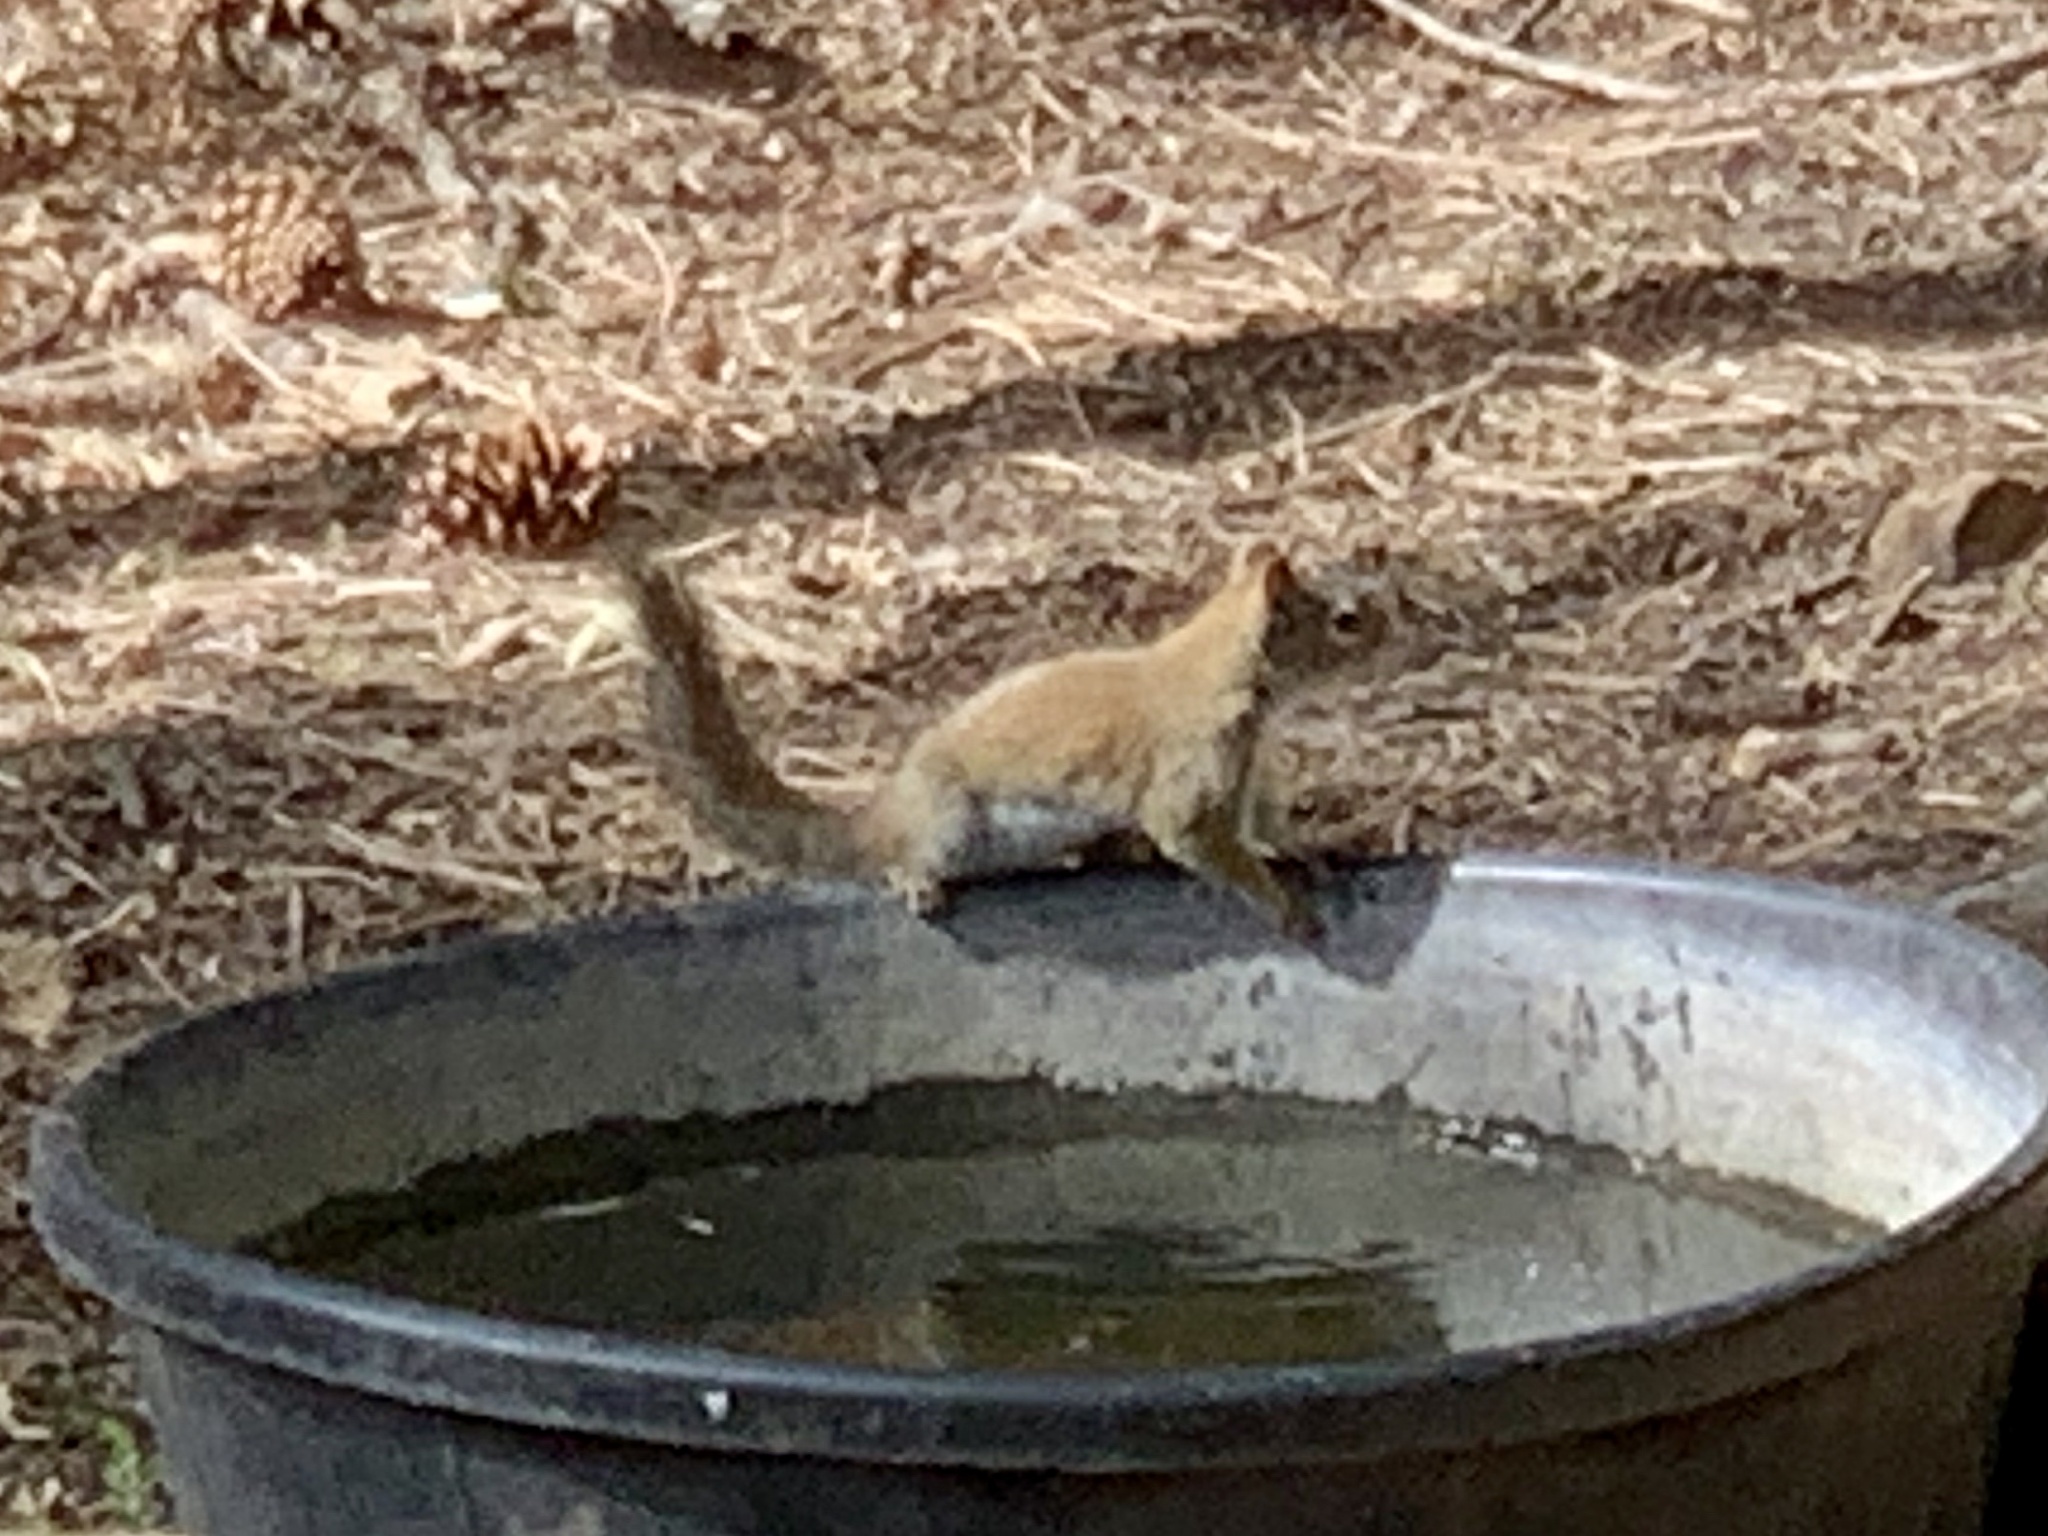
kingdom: Animalia
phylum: Chordata
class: Mammalia
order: Rodentia
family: Sciuridae
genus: Tamiasciurus
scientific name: Tamiasciurus hudsonicus
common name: Red squirrel
